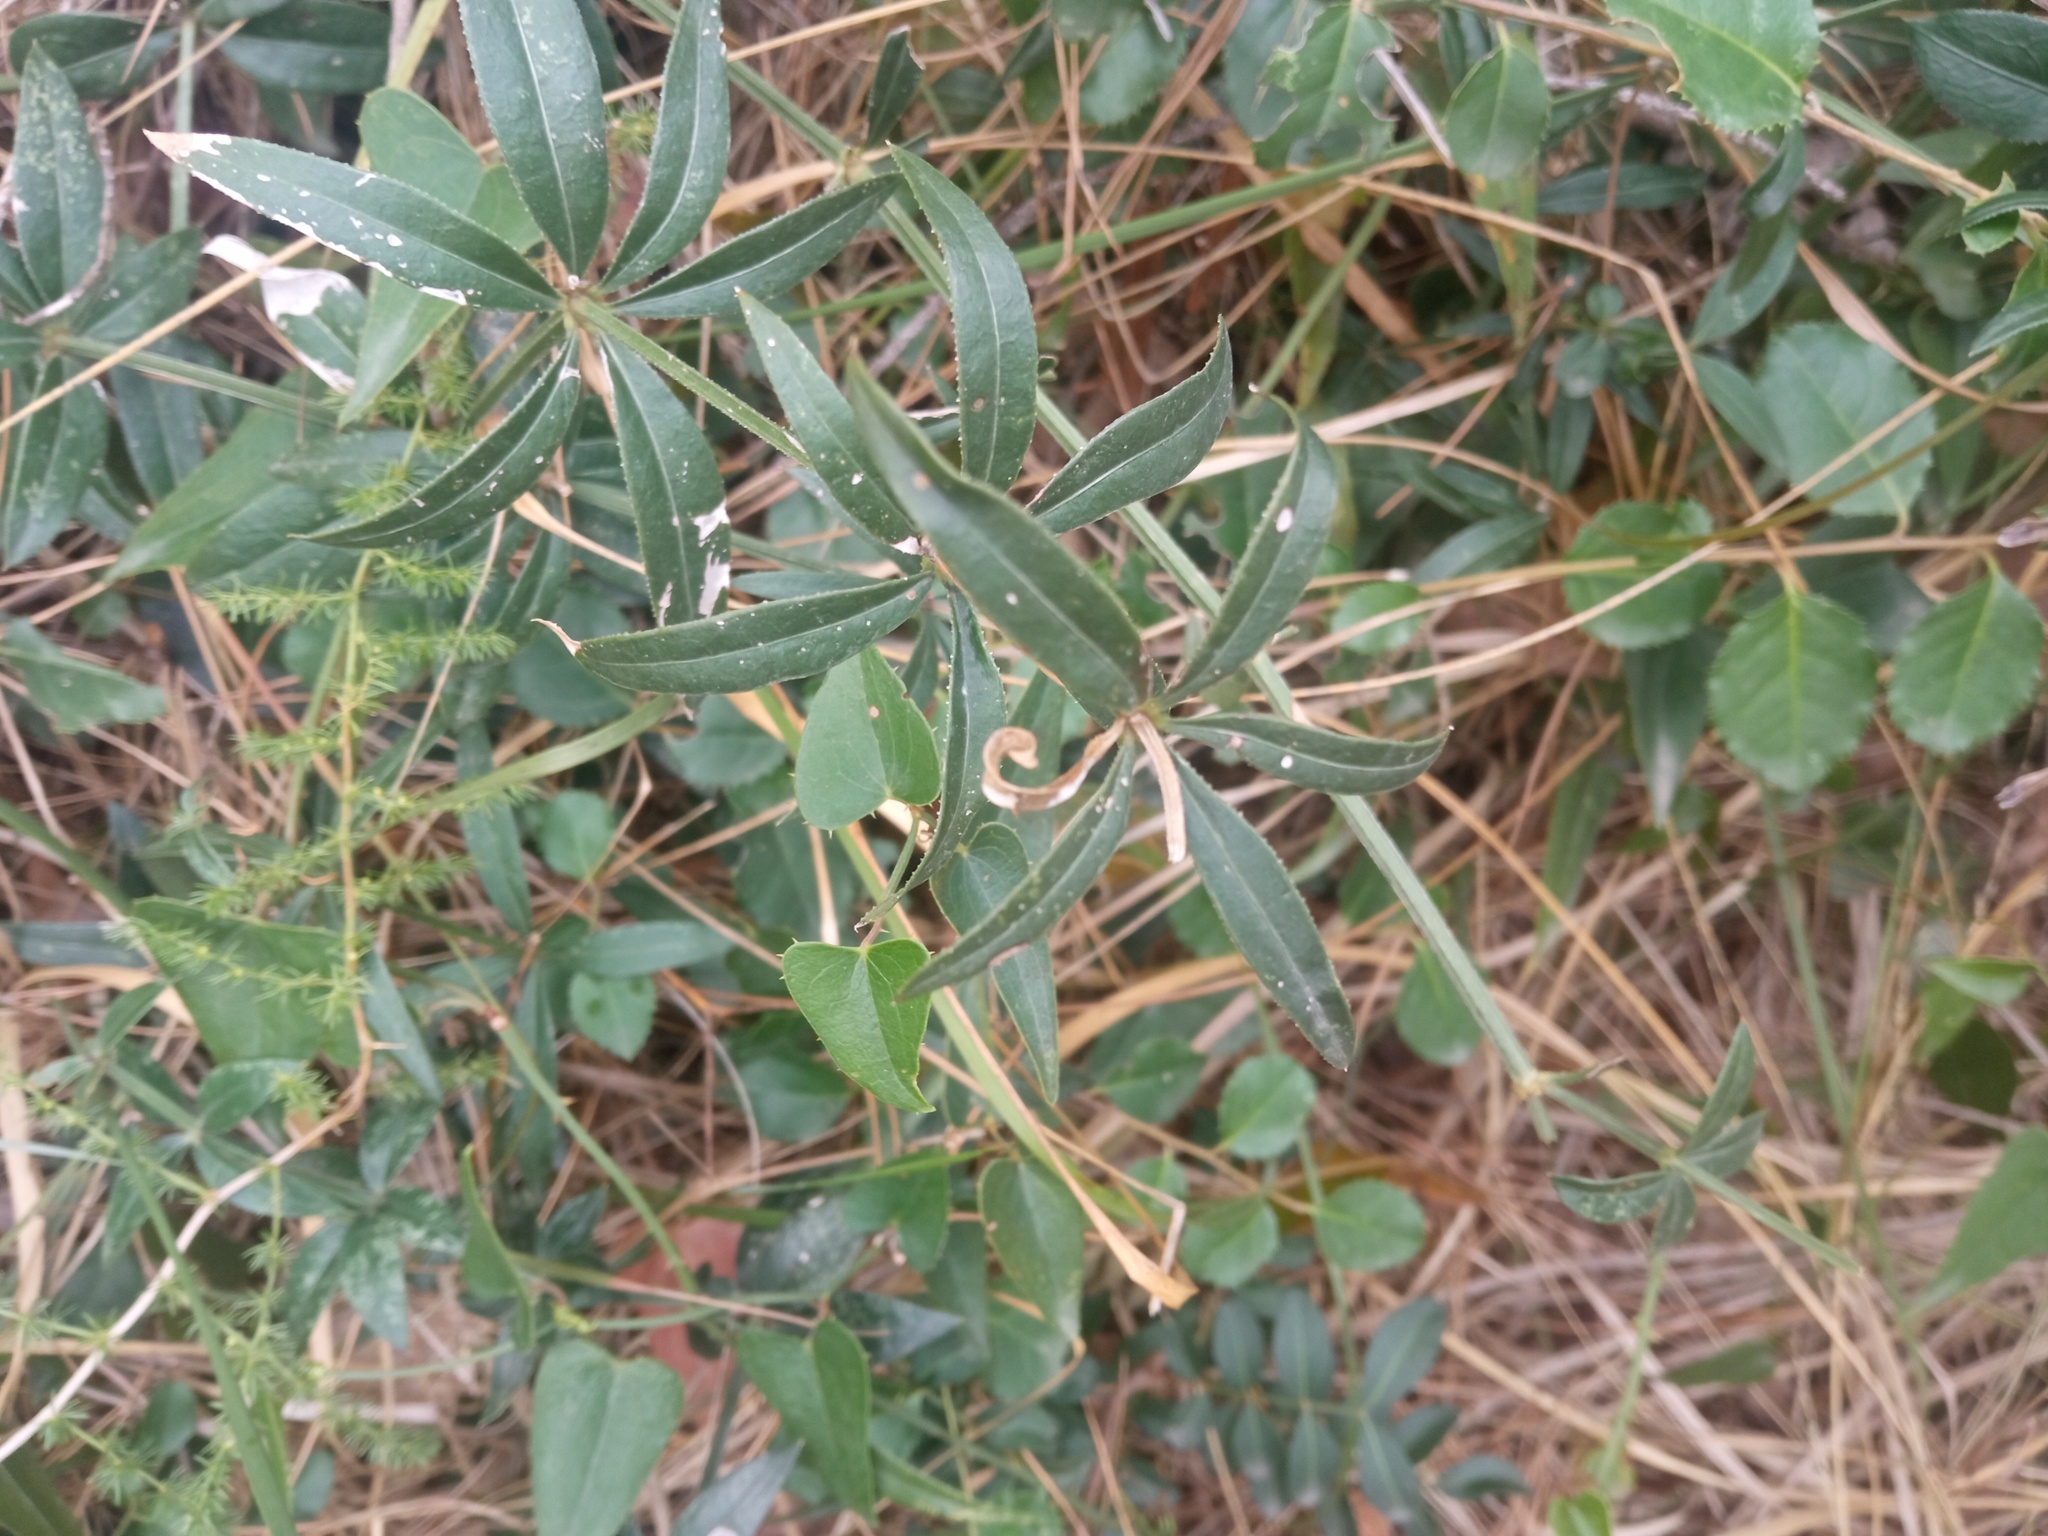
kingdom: Plantae
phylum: Tracheophyta
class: Magnoliopsida
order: Gentianales
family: Rubiaceae
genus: Rubia
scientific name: Rubia peregrina
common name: Wild madder
